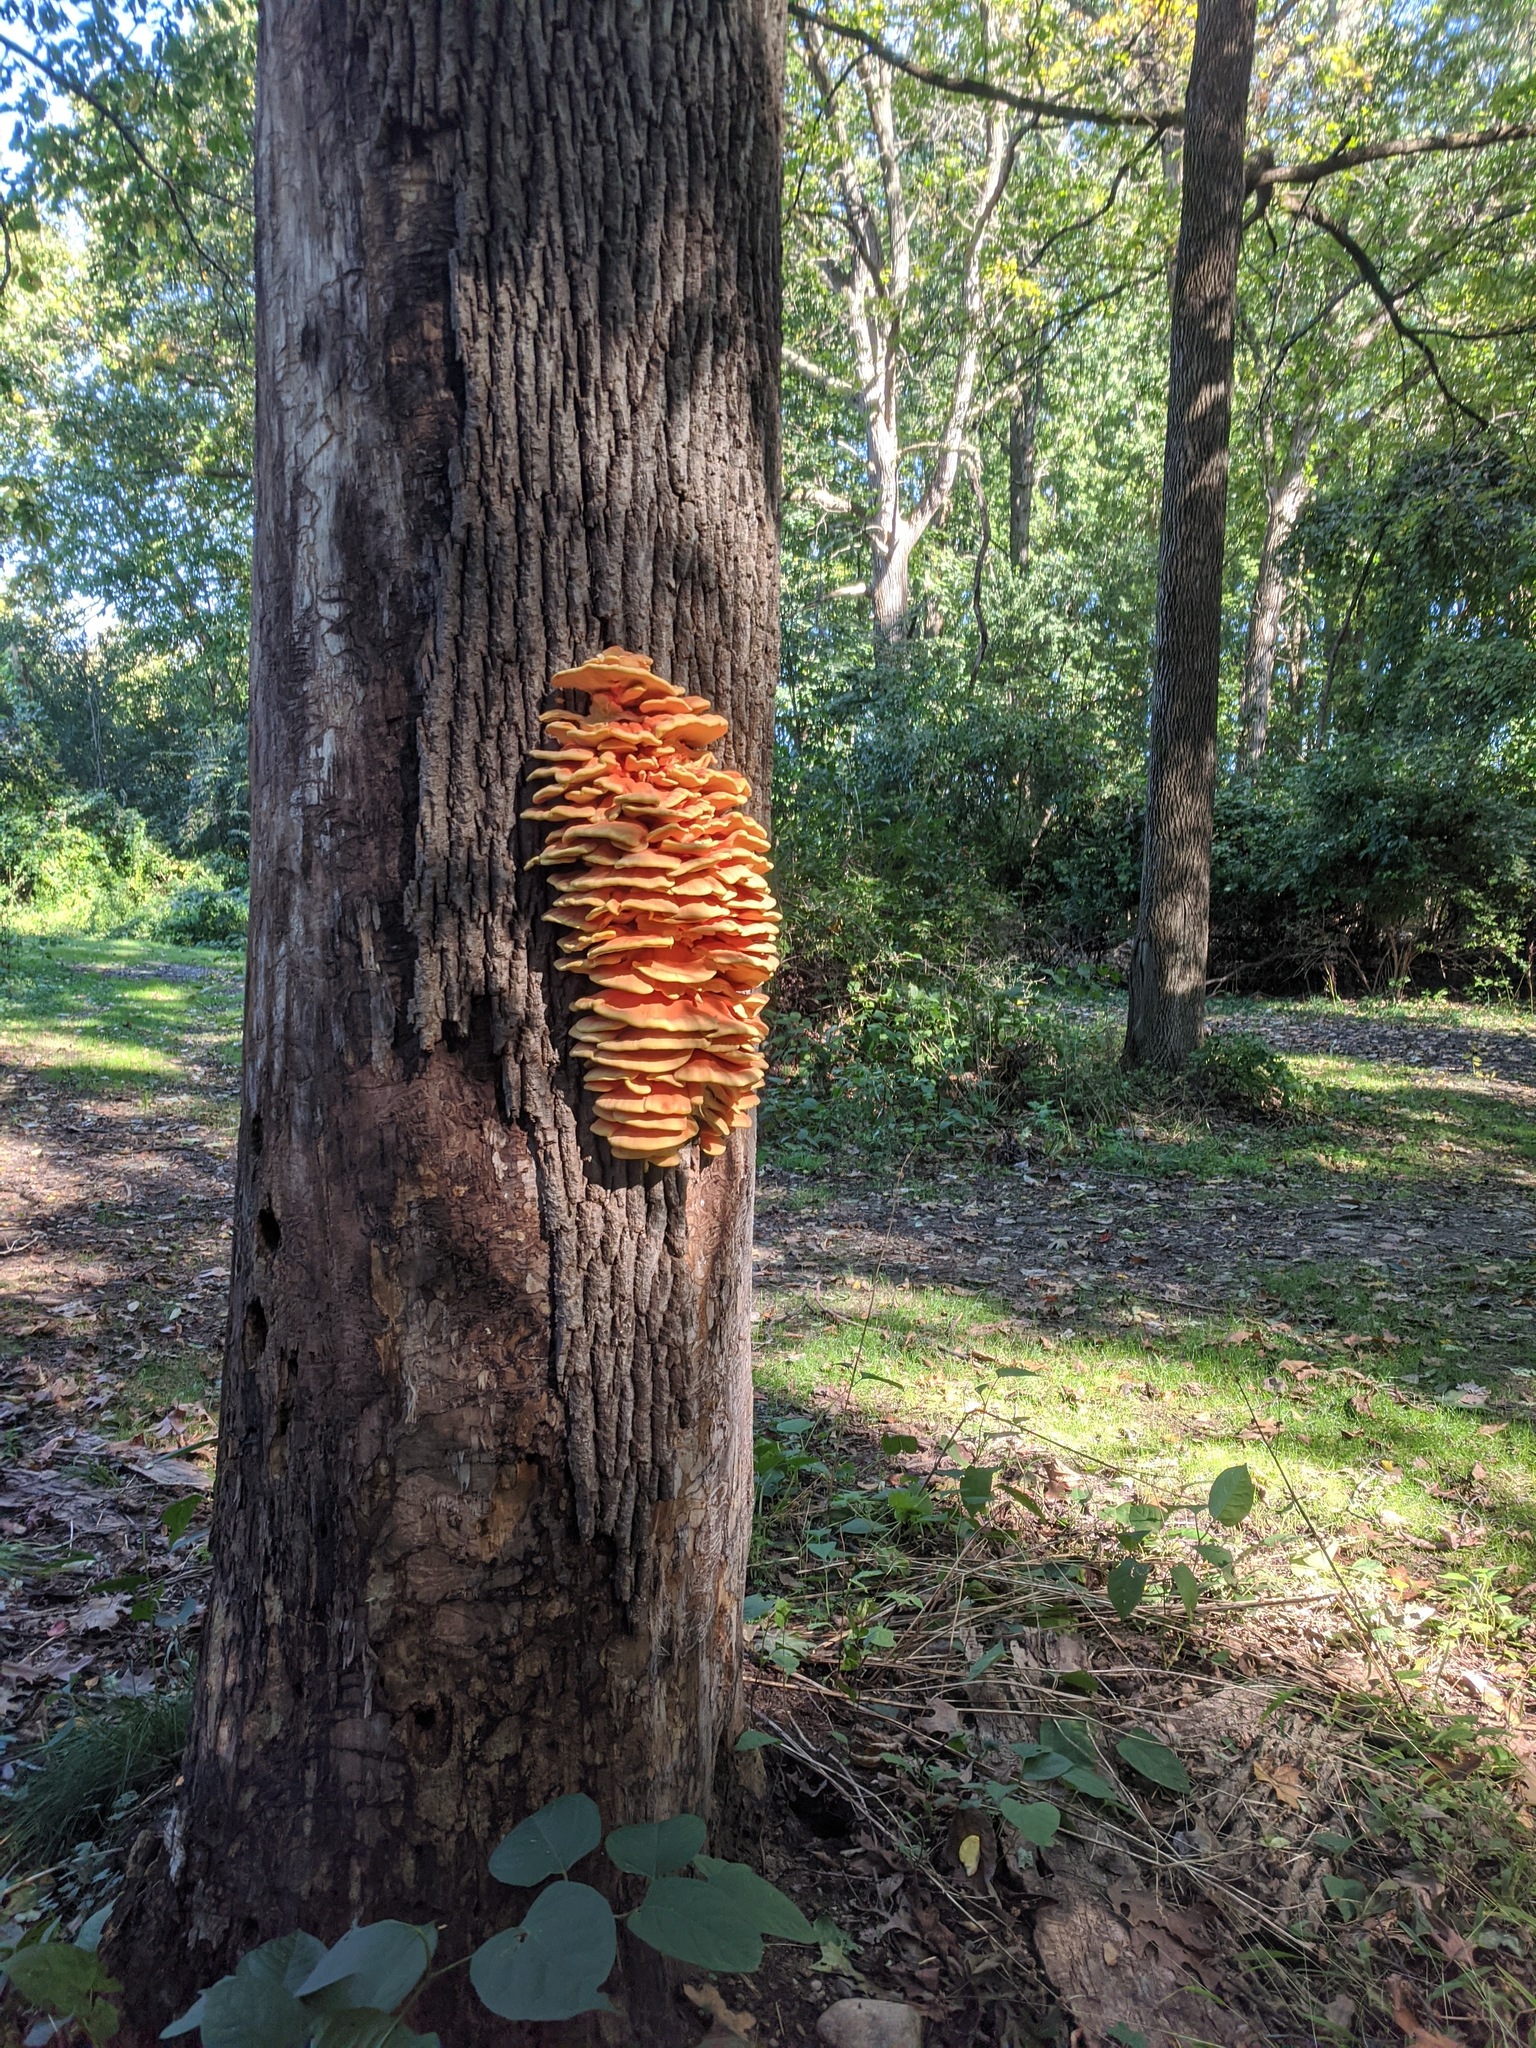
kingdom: Fungi
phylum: Basidiomycota
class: Agaricomycetes
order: Polyporales
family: Laetiporaceae
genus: Laetiporus
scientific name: Laetiporus sulphureus
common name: Chicken of the woods
